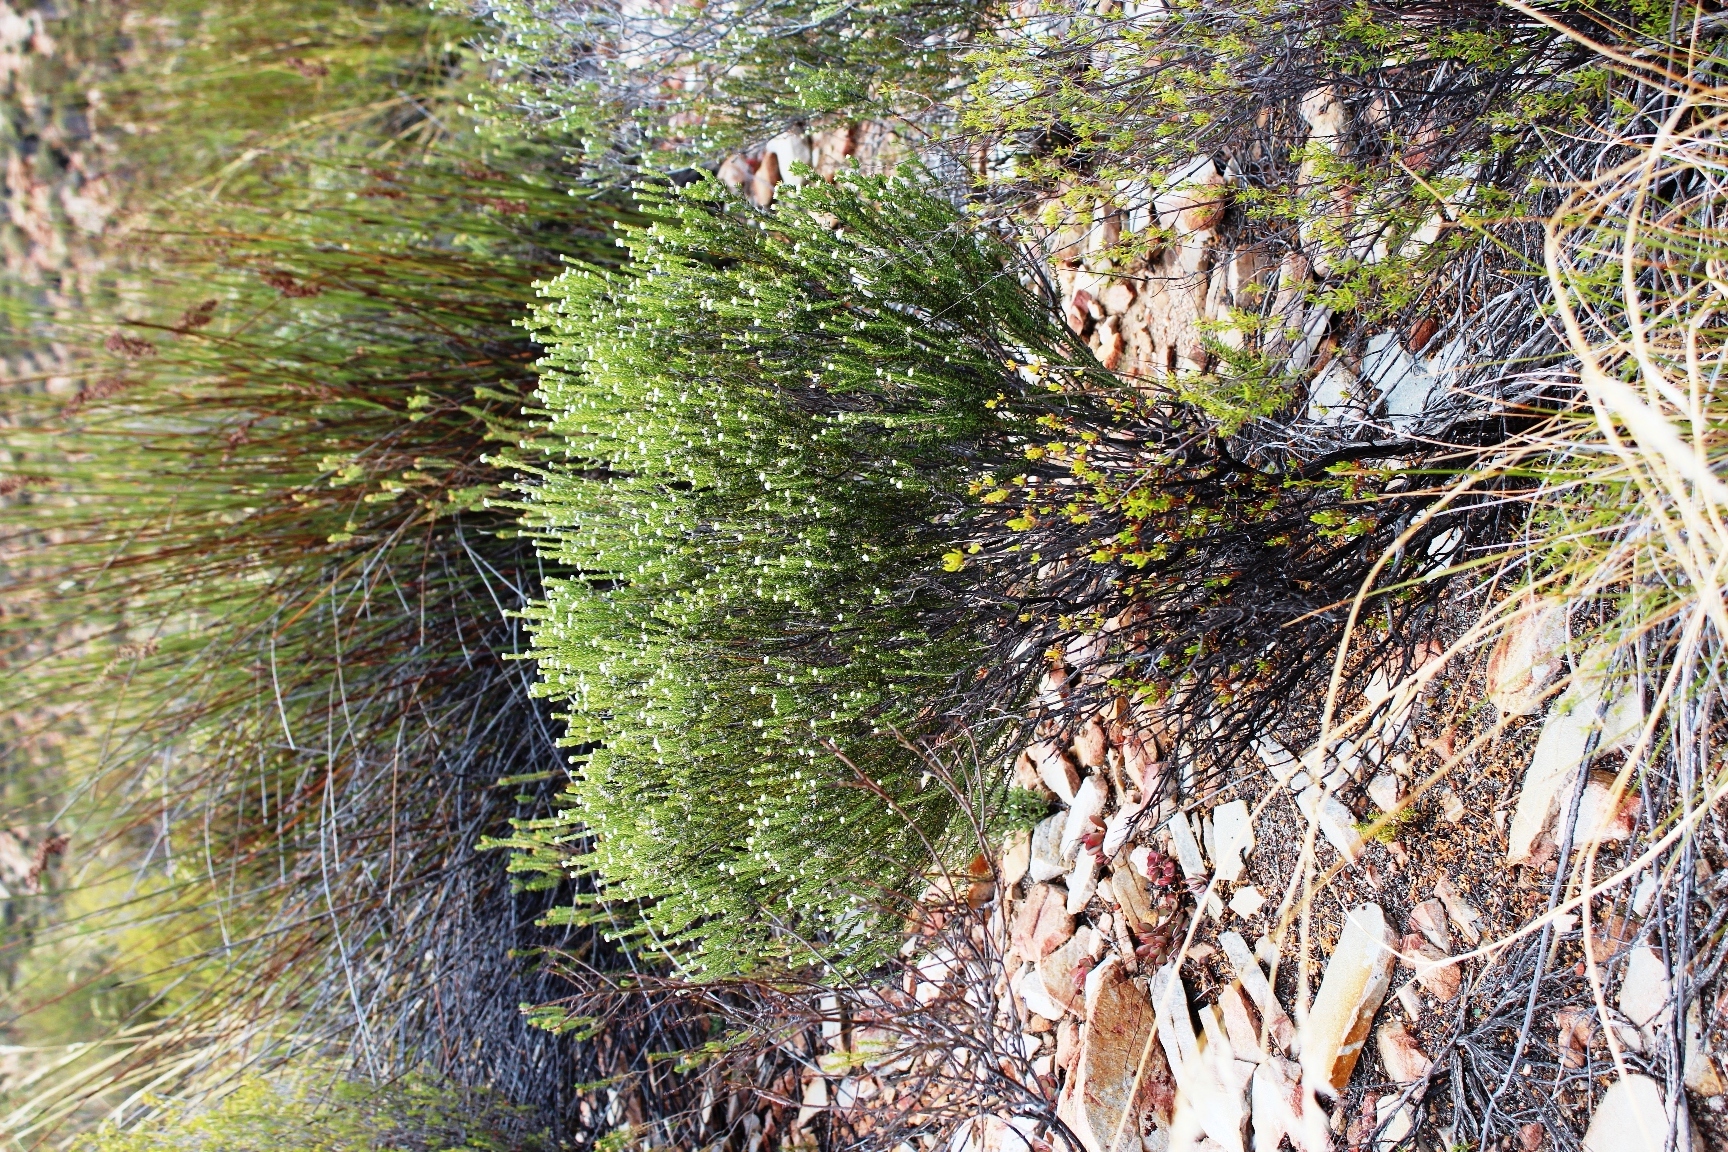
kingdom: Plantae
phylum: Tracheophyta
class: Magnoliopsida
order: Rosales
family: Rhamnaceae
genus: Phylica
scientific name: Phylica lanata
